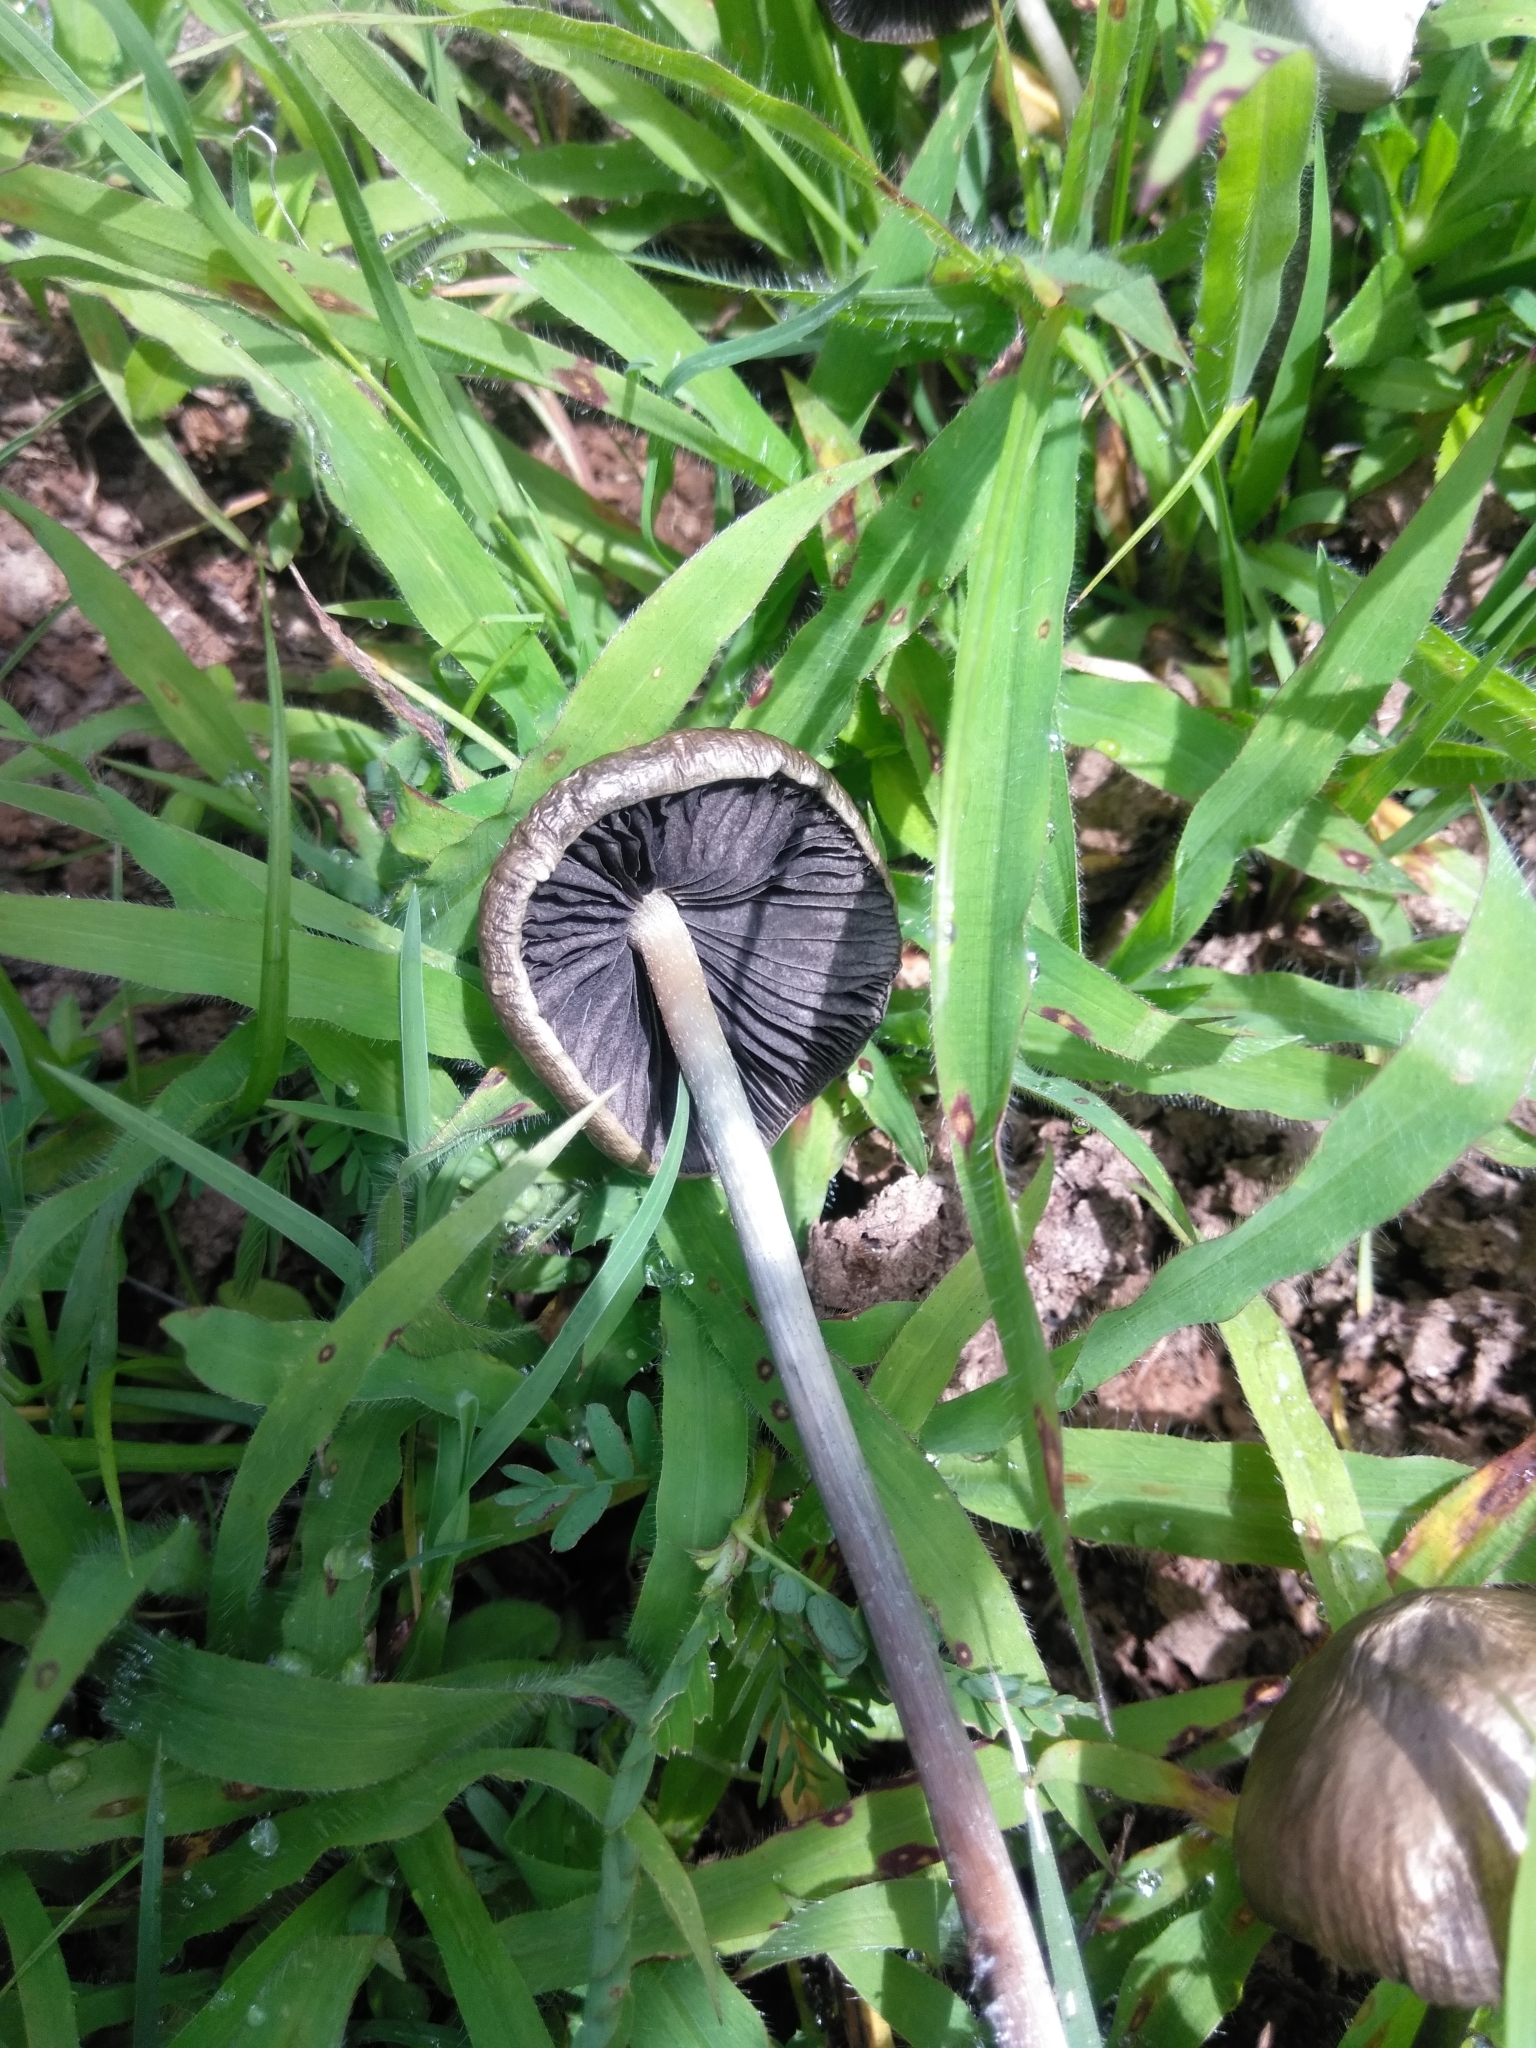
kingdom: Fungi
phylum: Basidiomycota
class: Agaricomycetes
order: Agaricales
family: Bolbitiaceae
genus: Panaeolus
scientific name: Panaeolus cyanescens
